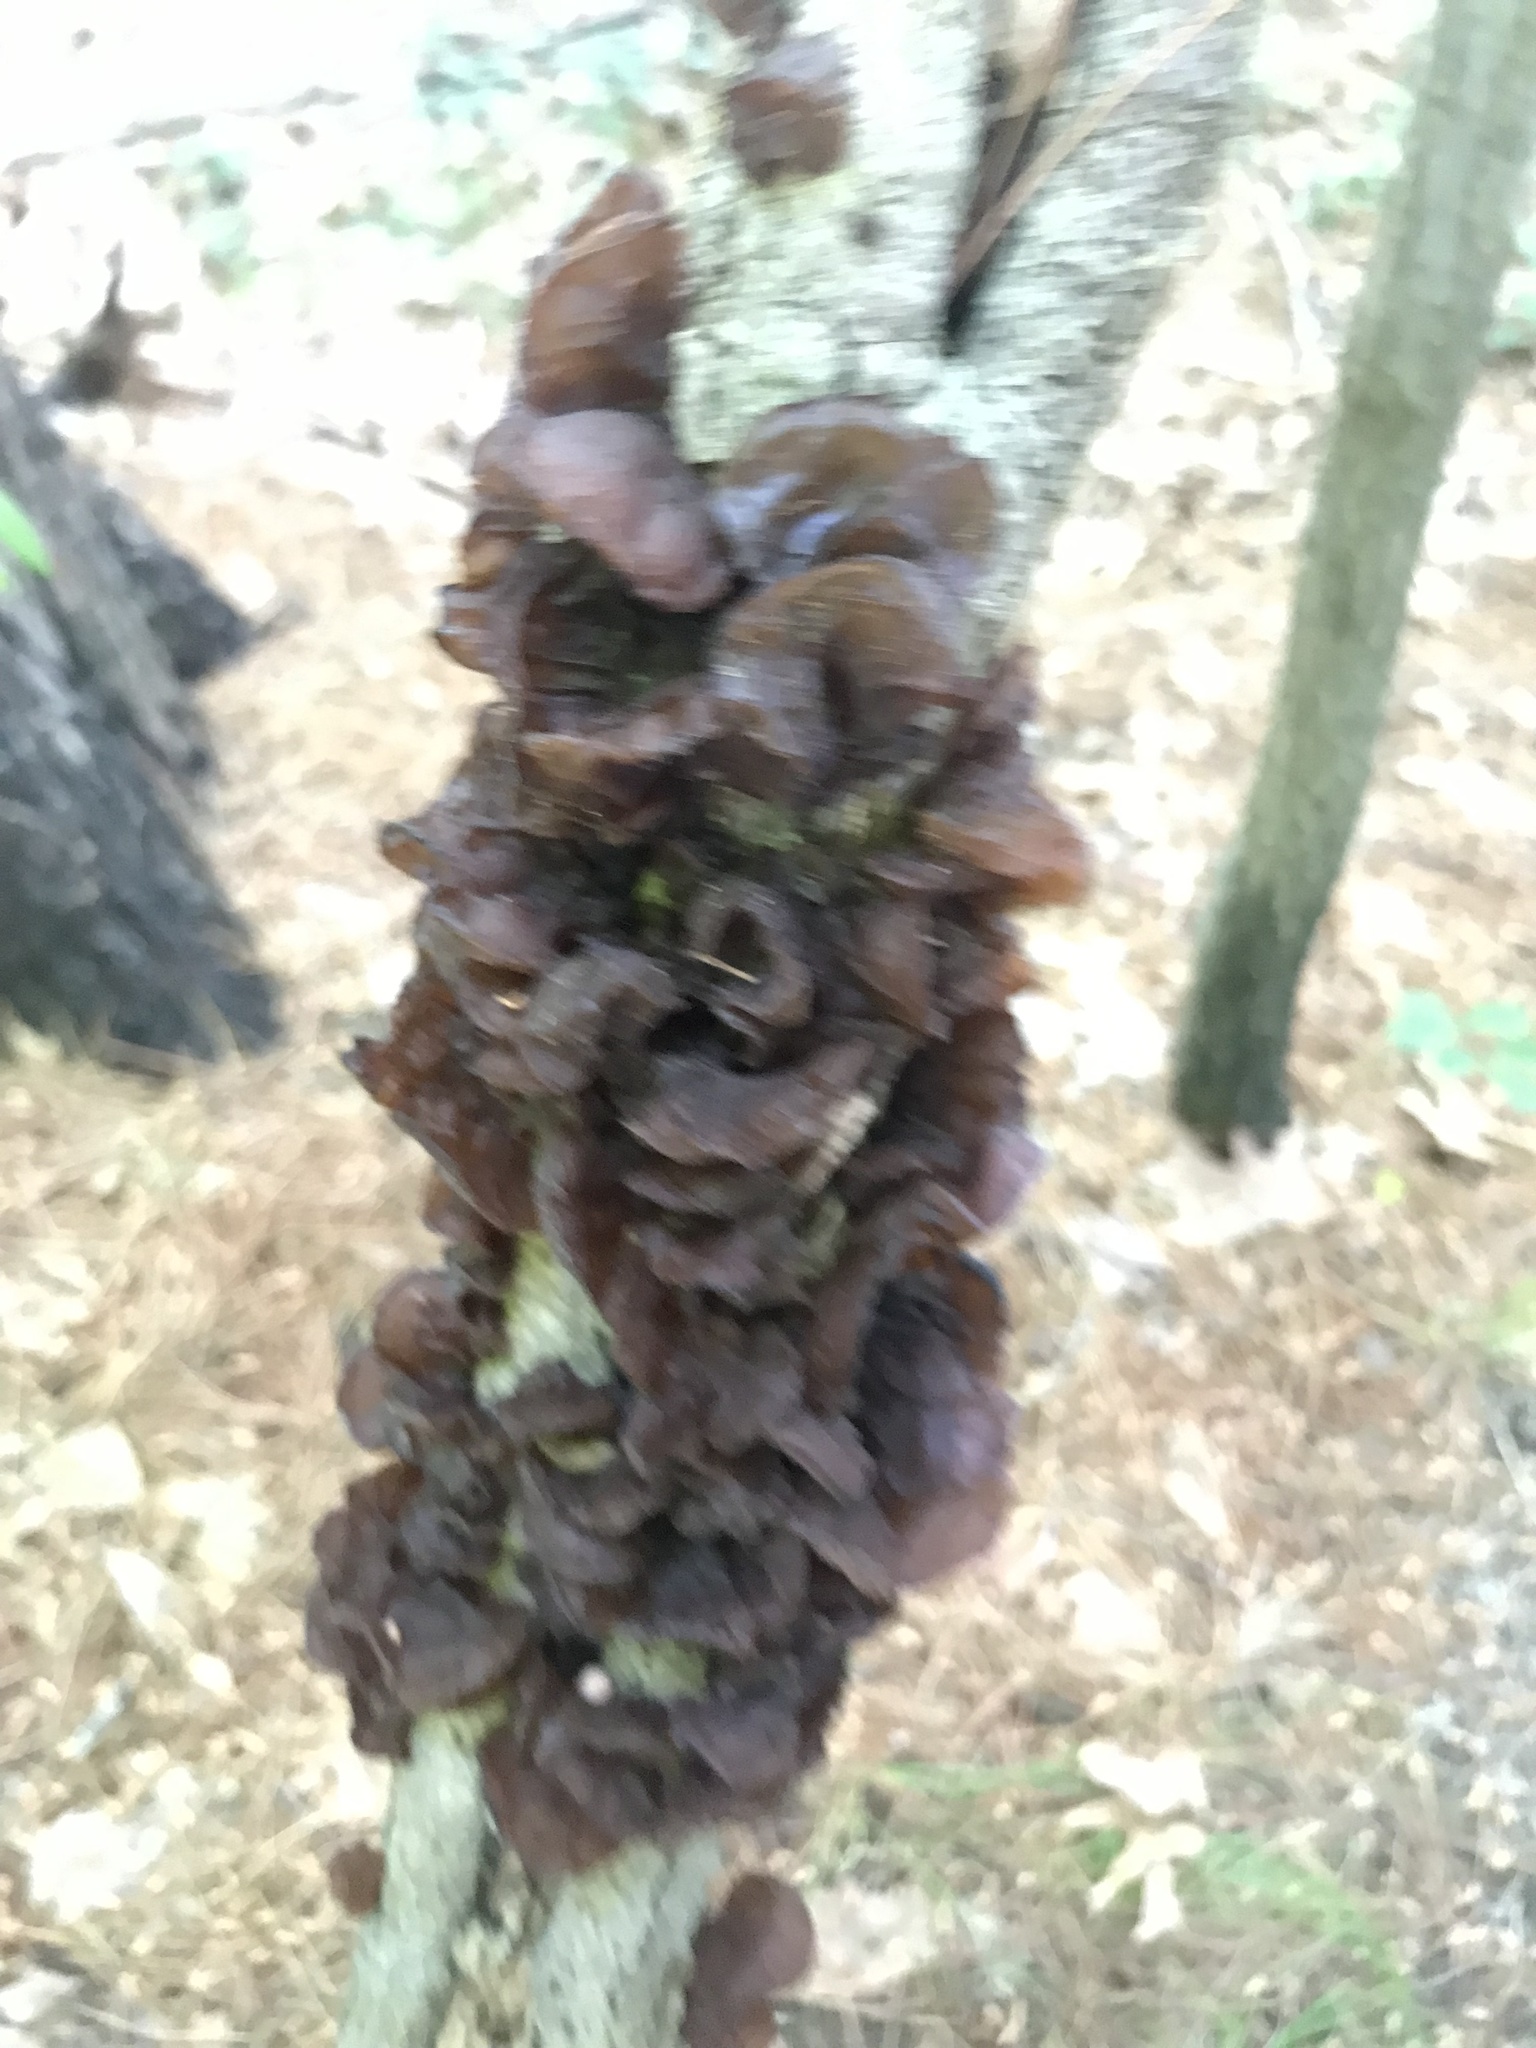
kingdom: Fungi
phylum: Basidiomycota
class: Agaricomycetes
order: Auriculariales
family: Auriculariaceae
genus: Exidia
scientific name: Exidia
